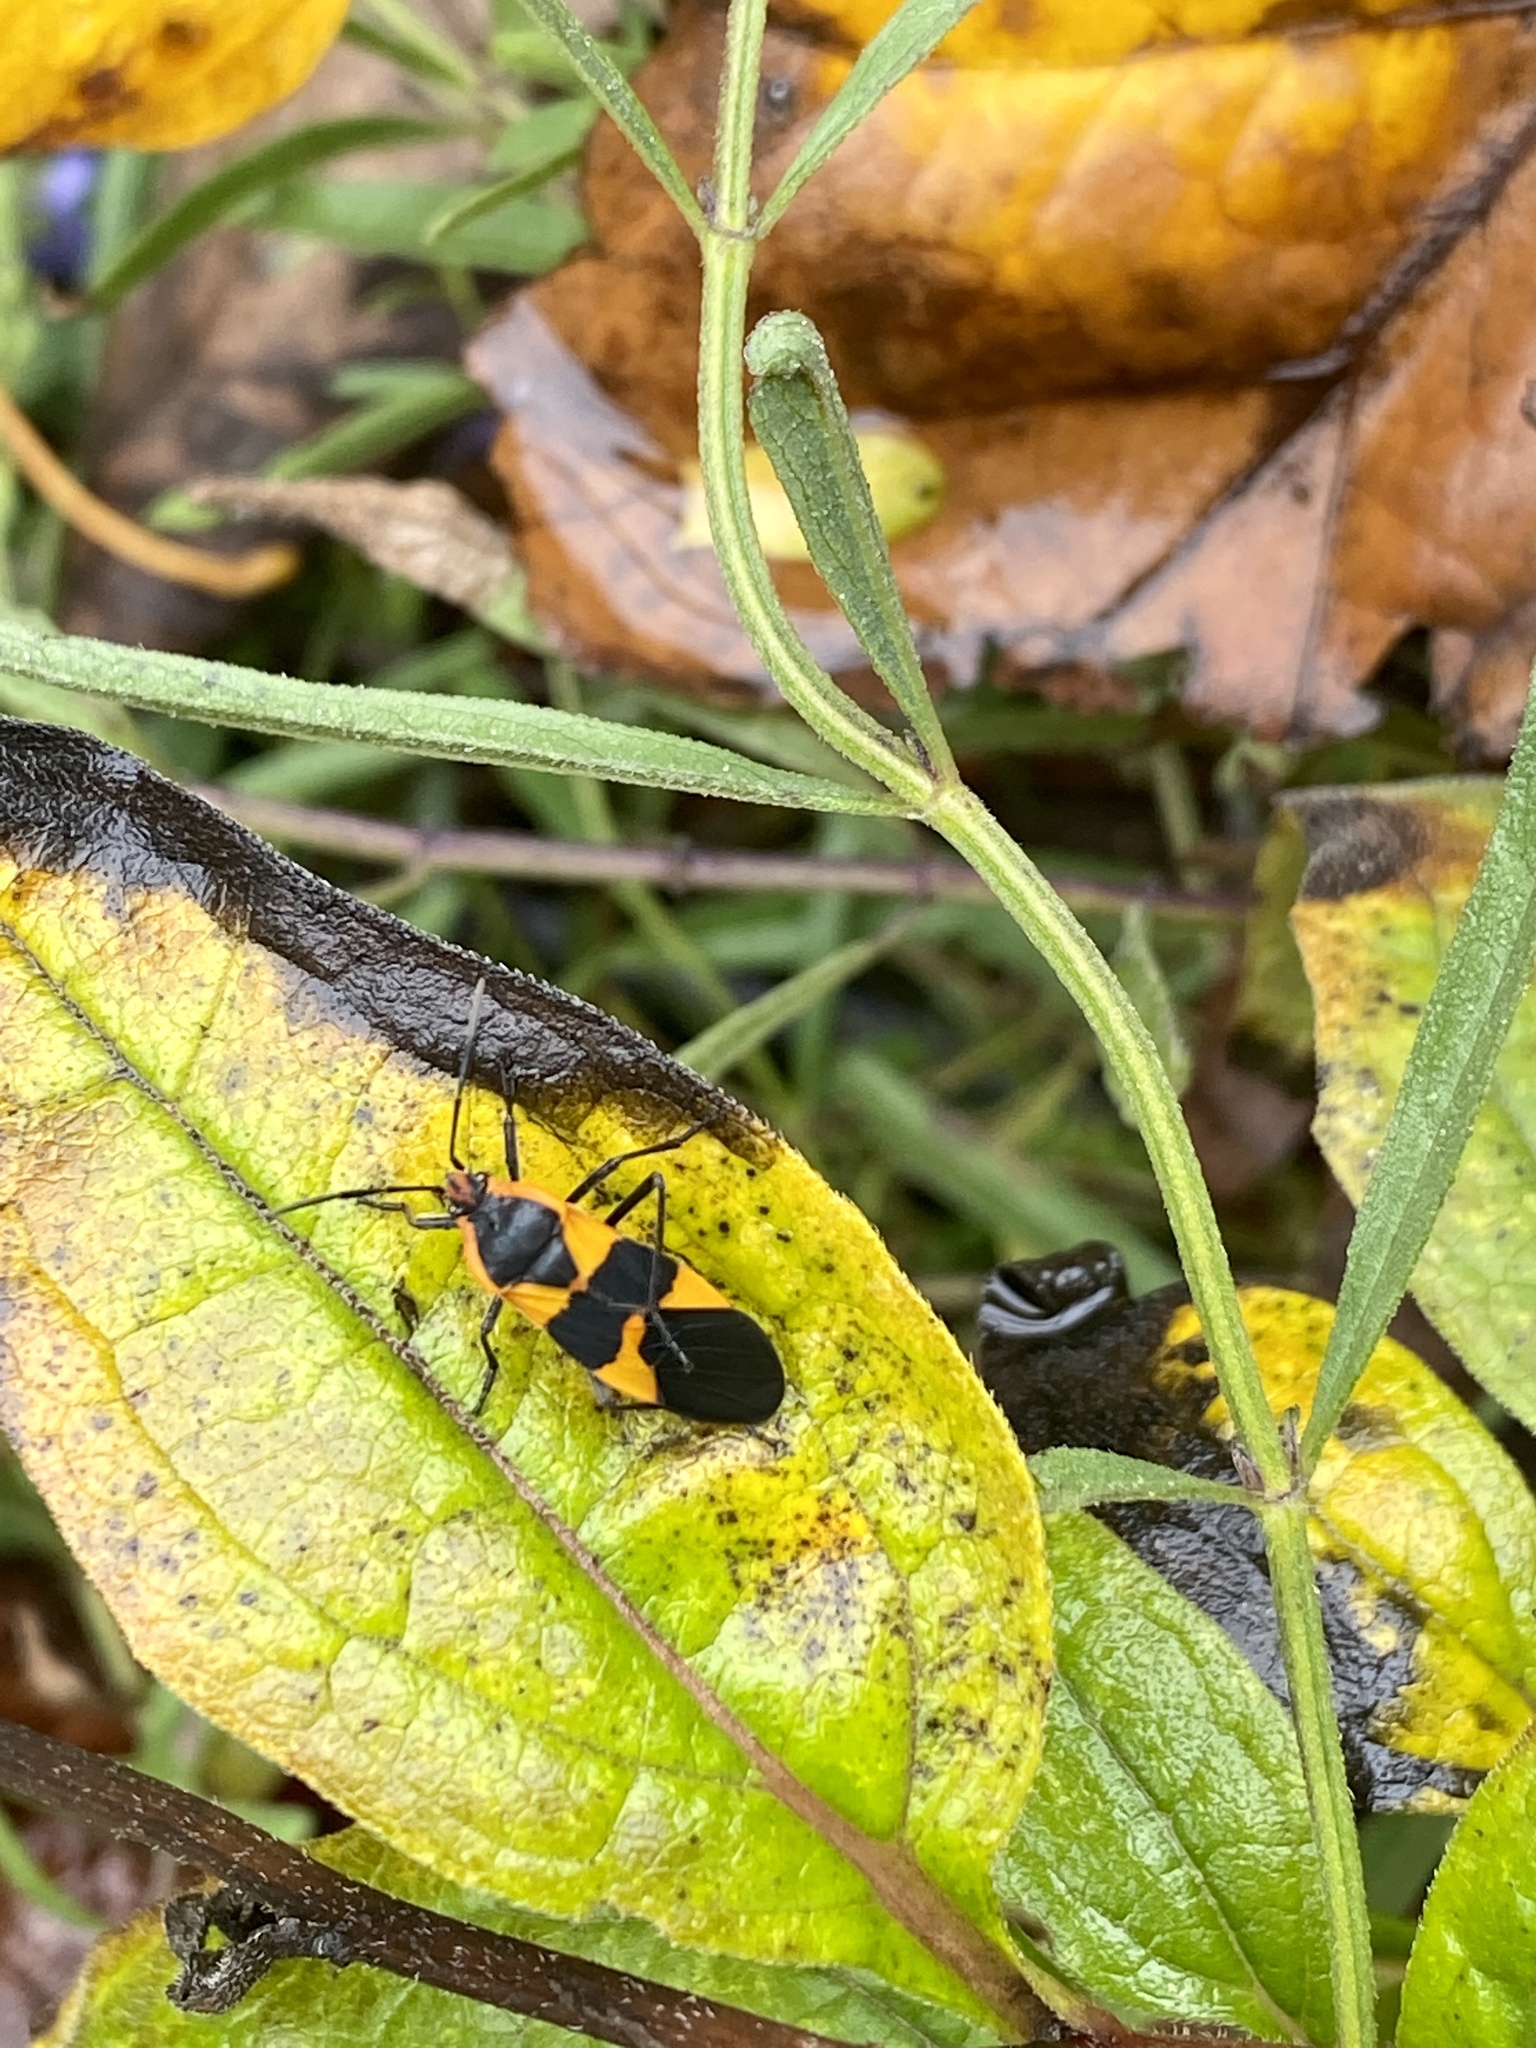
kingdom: Animalia
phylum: Arthropoda
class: Insecta
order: Hemiptera
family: Lygaeidae
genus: Oncopeltus
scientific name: Oncopeltus fasciatus
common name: Large milkweed bug
